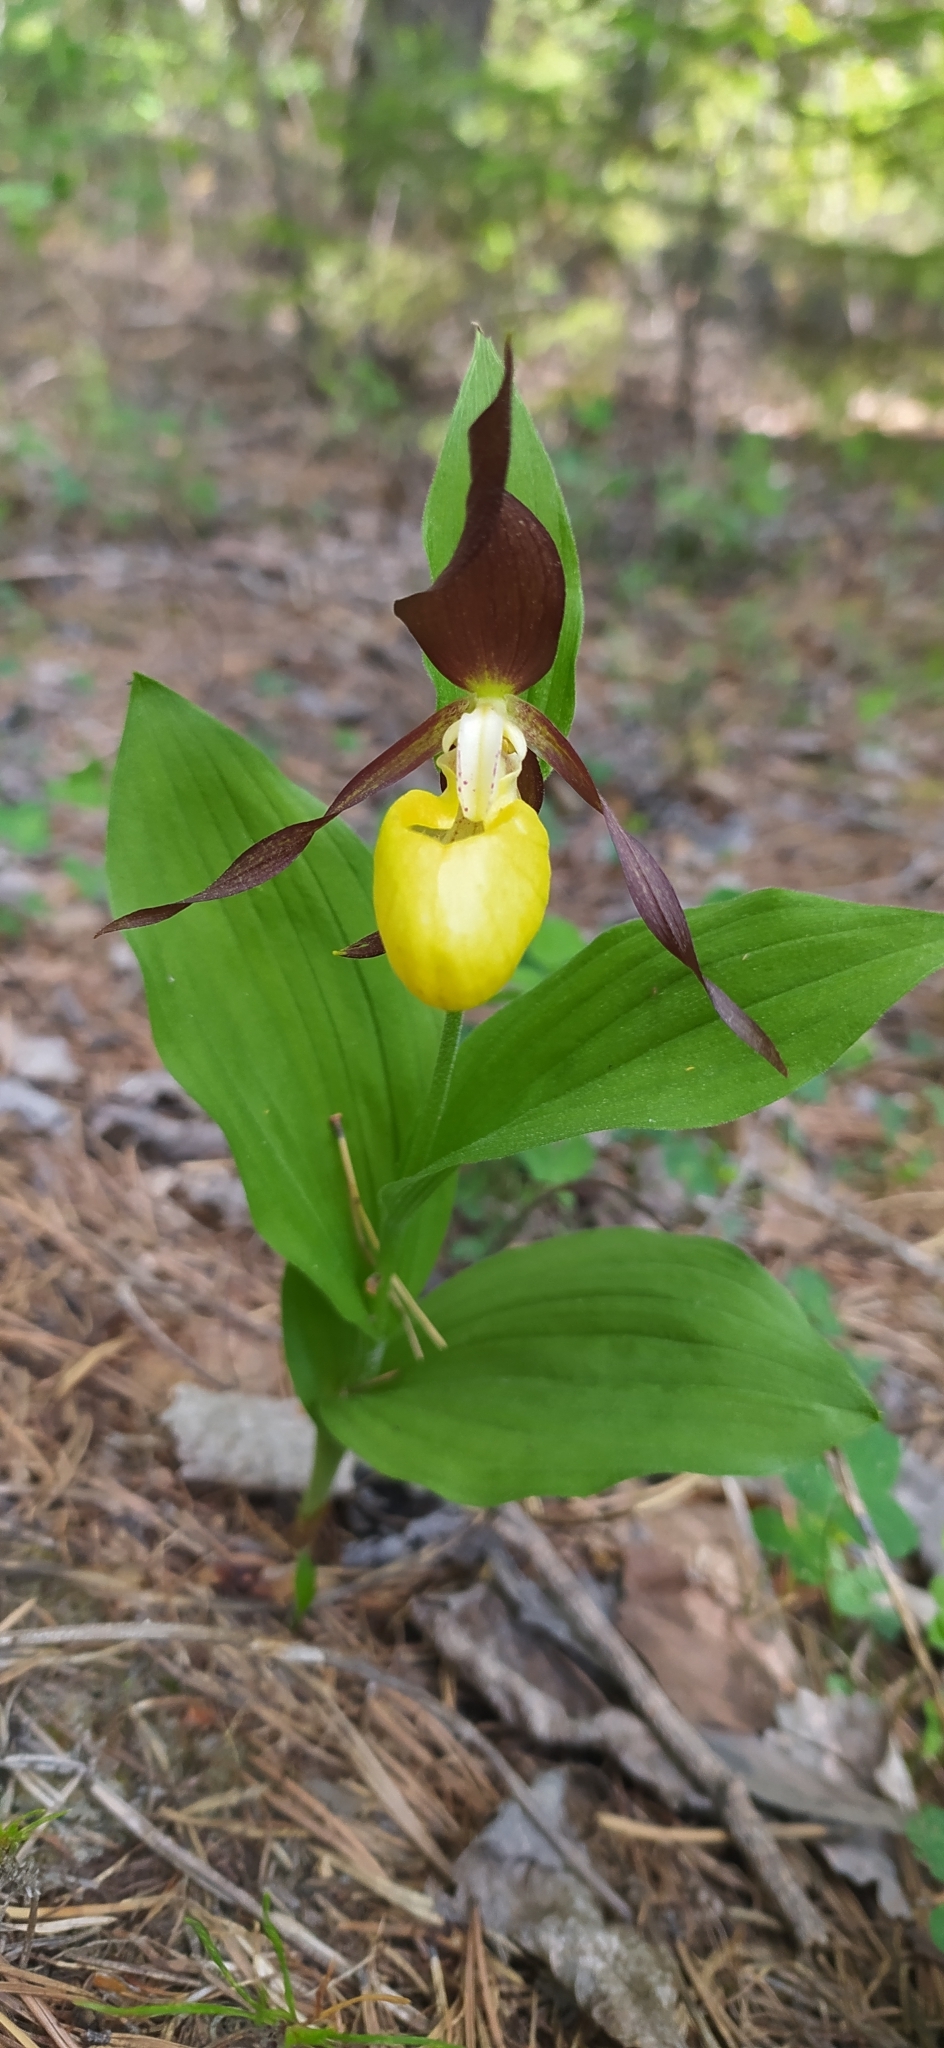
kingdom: Plantae
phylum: Tracheophyta
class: Liliopsida
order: Asparagales
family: Orchidaceae
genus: Cypripedium
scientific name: Cypripedium calceolus
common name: Lady's-slipper
